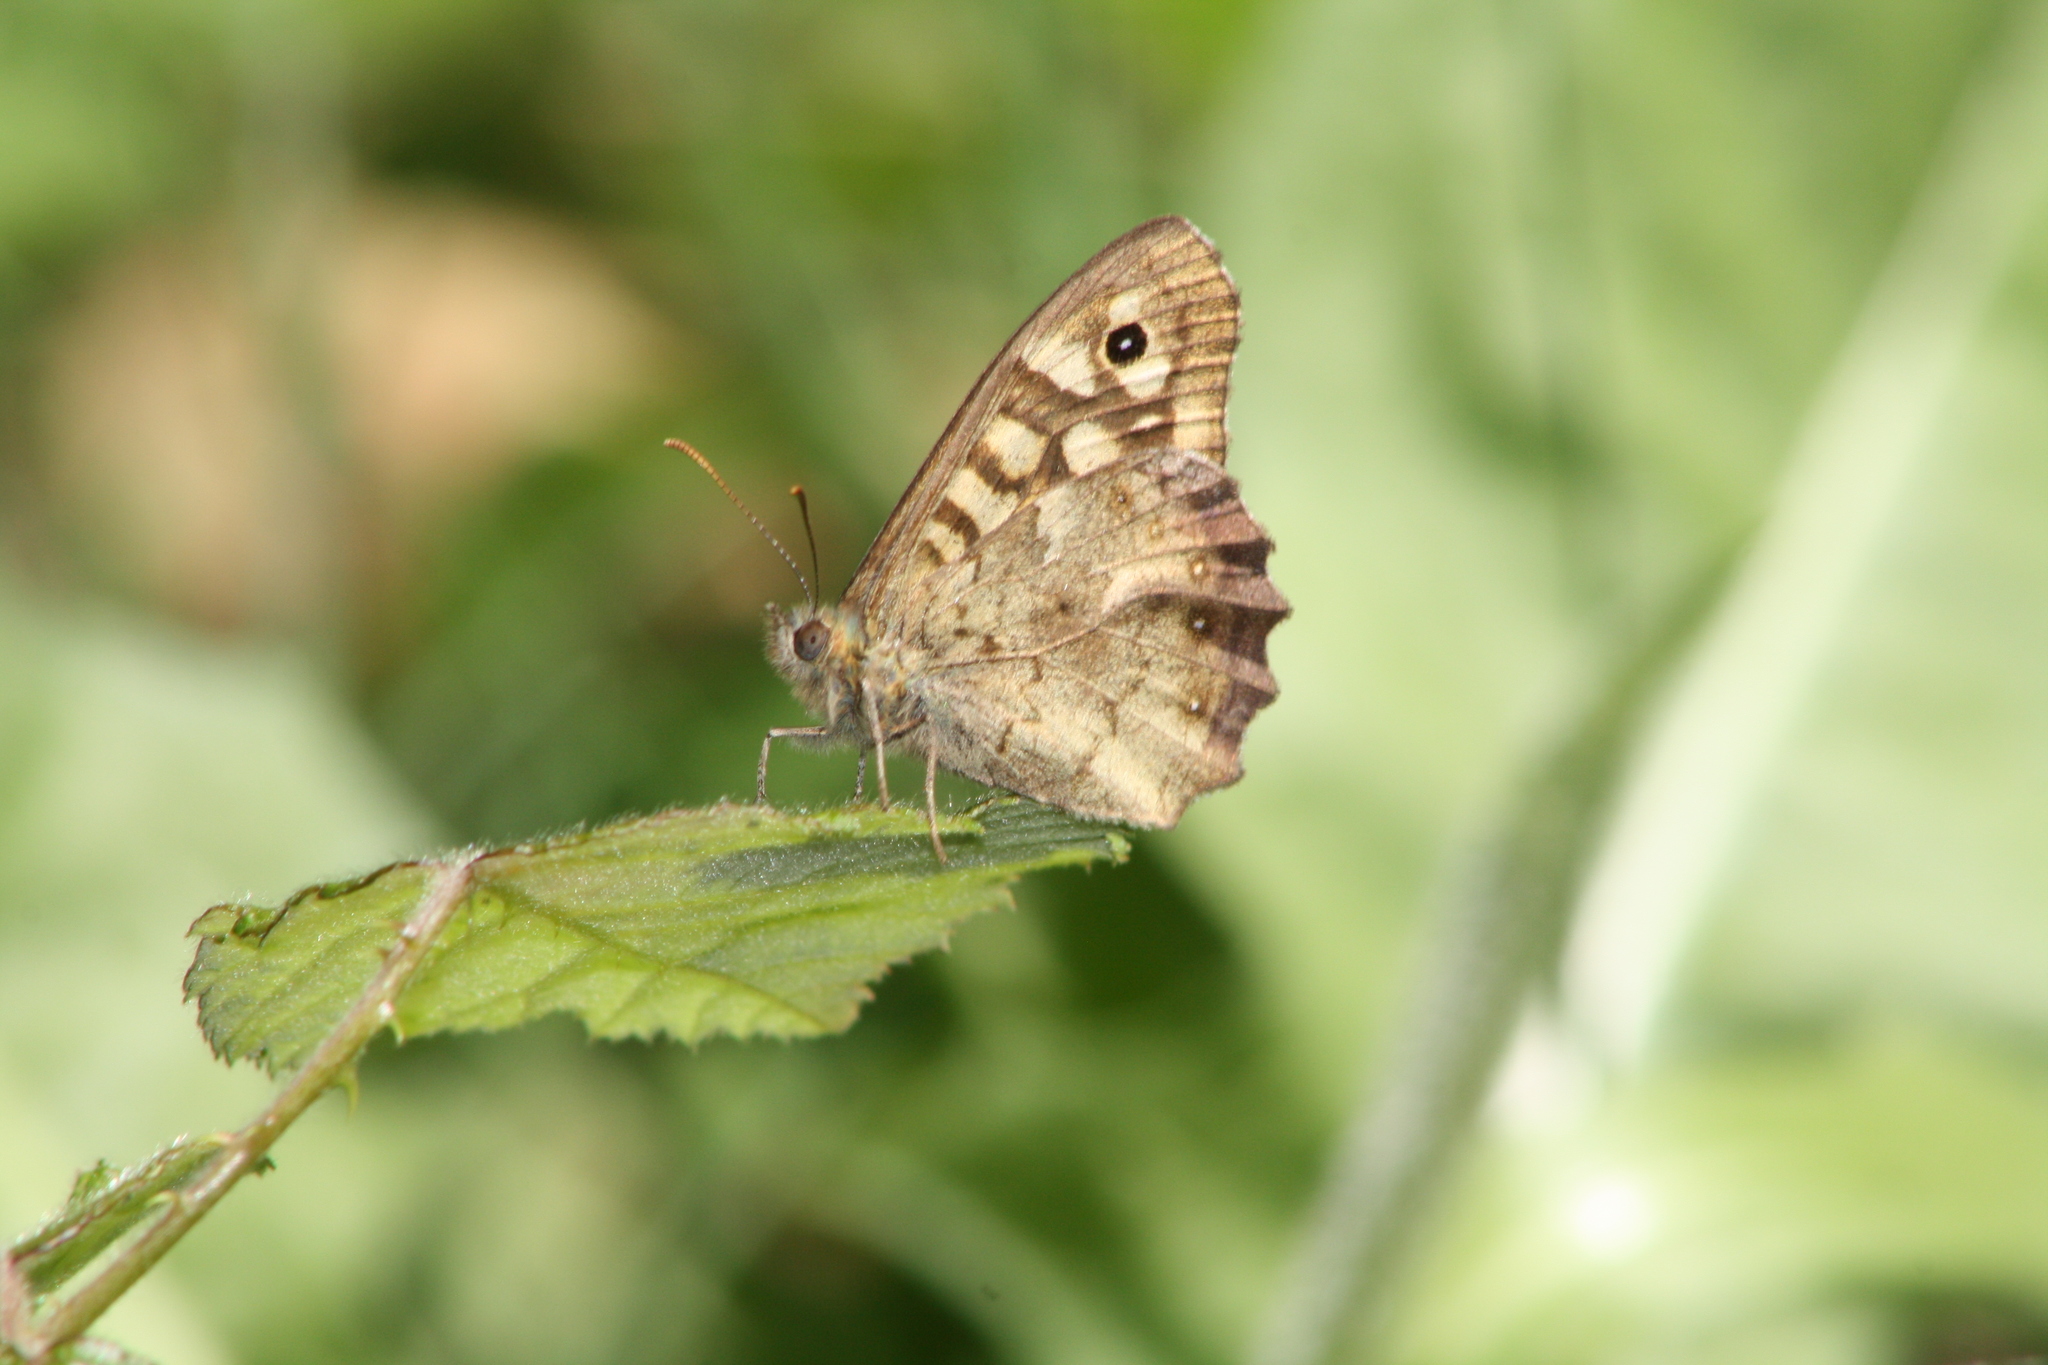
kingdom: Animalia
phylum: Arthropoda
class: Insecta
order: Lepidoptera
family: Nymphalidae
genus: Pararge
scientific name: Pararge aegeria
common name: Speckled wood
